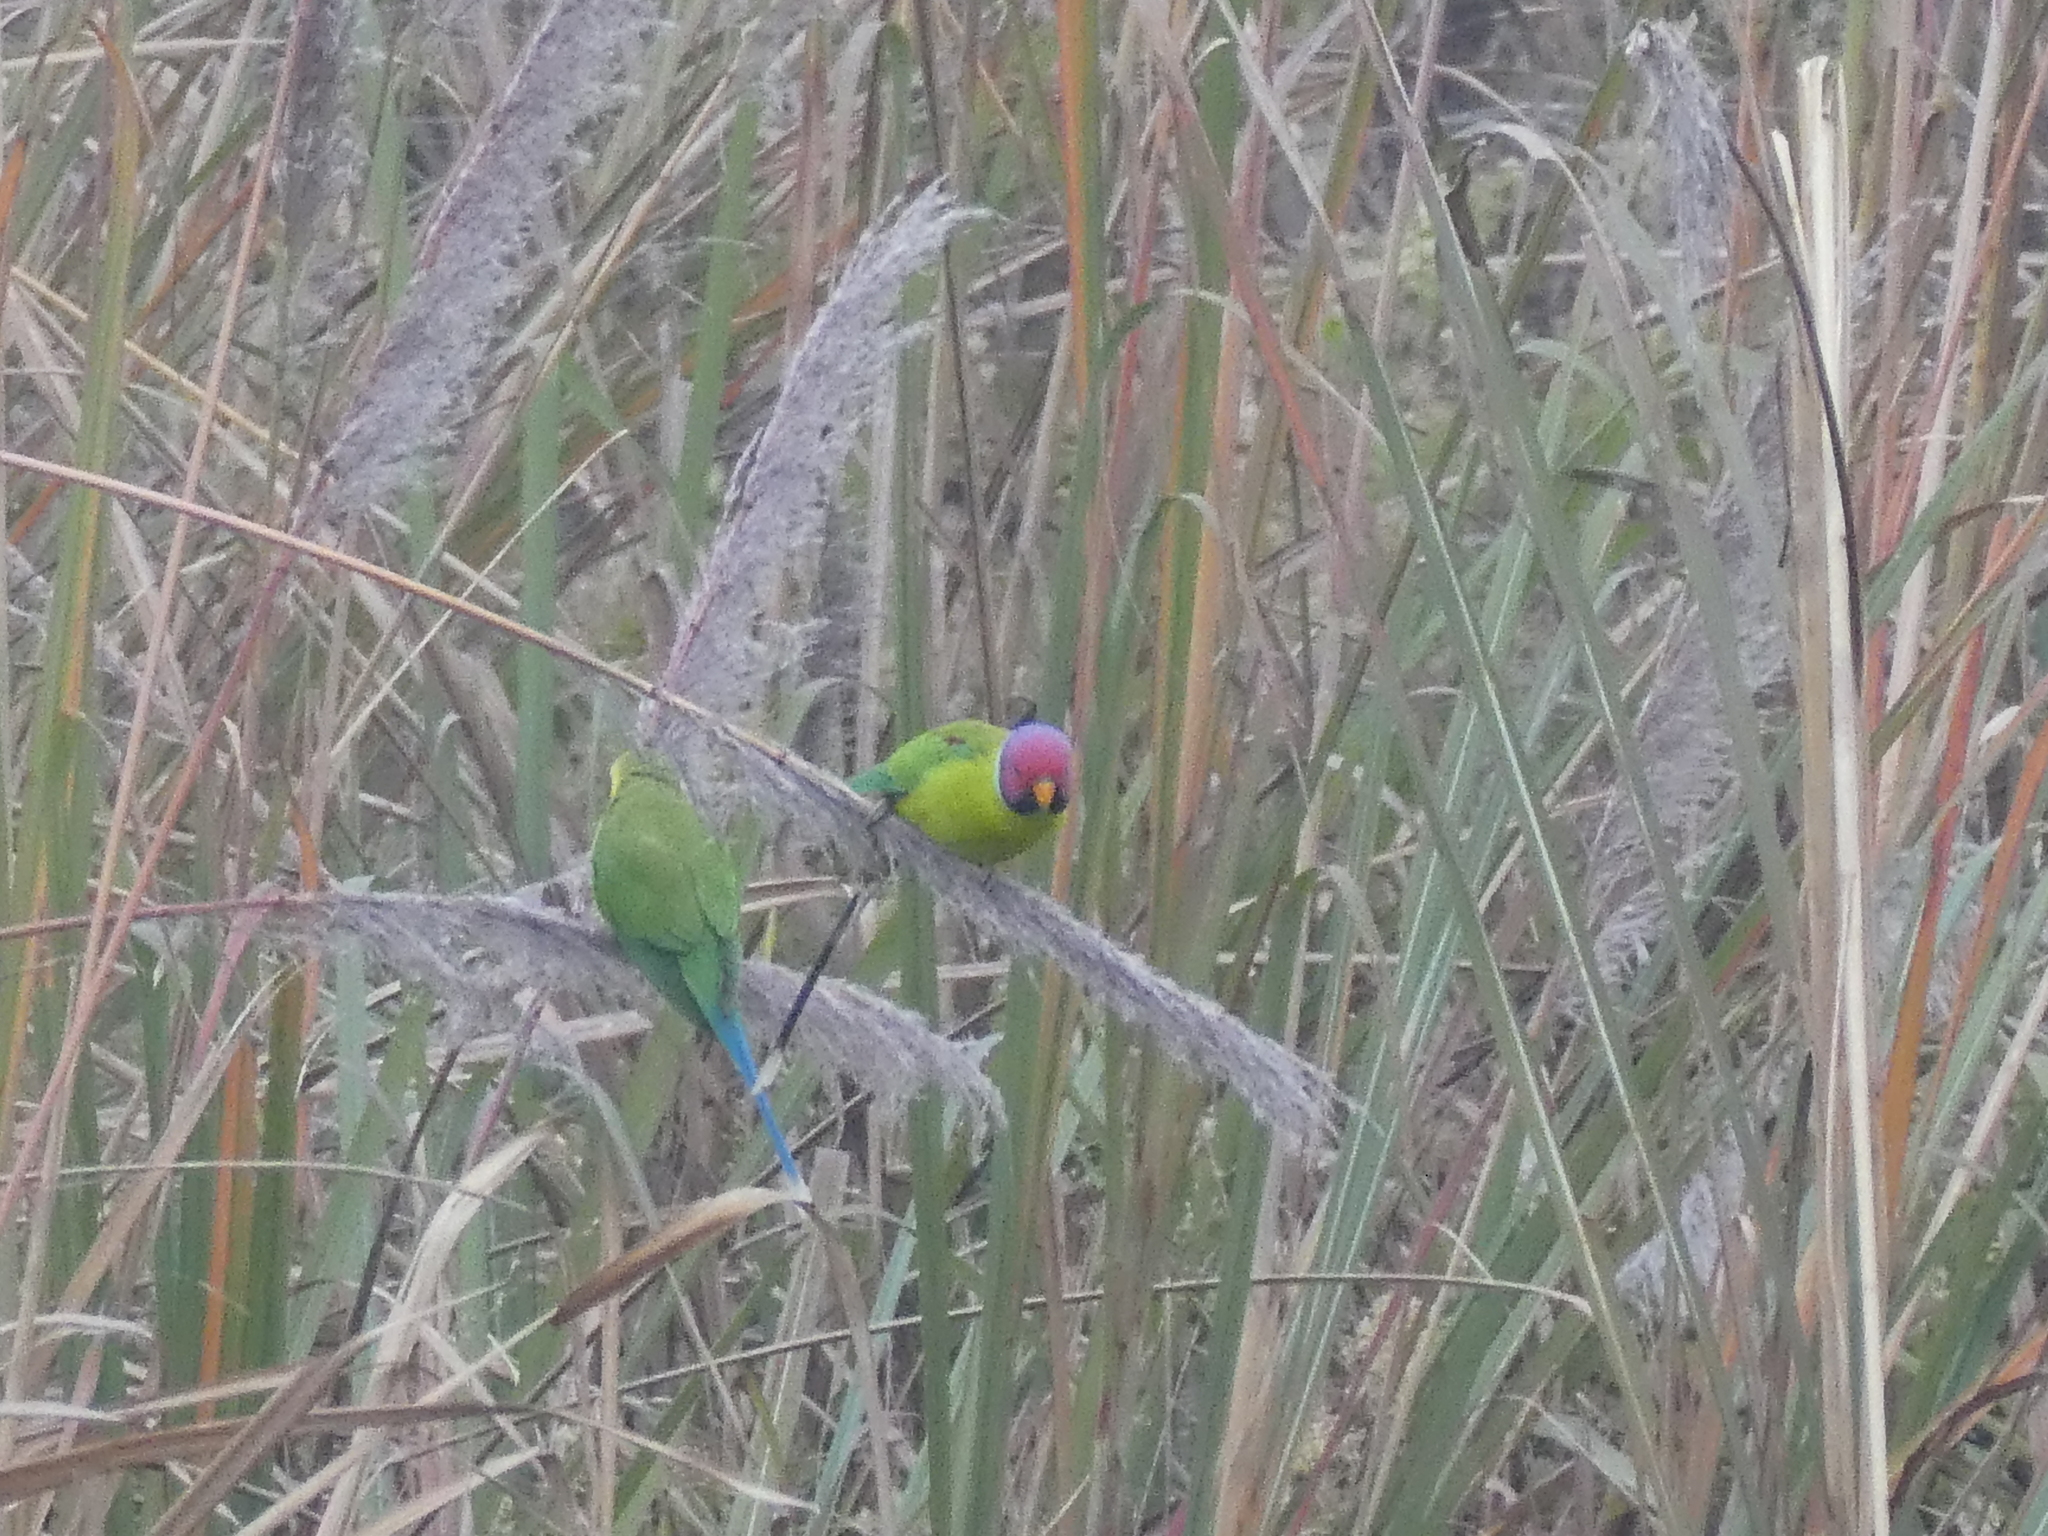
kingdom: Animalia
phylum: Chordata
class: Aves
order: Psittaciformes
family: Psittacidae
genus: Psittacula
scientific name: Psittacula cyanocephala
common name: Plum-headed parakeet
